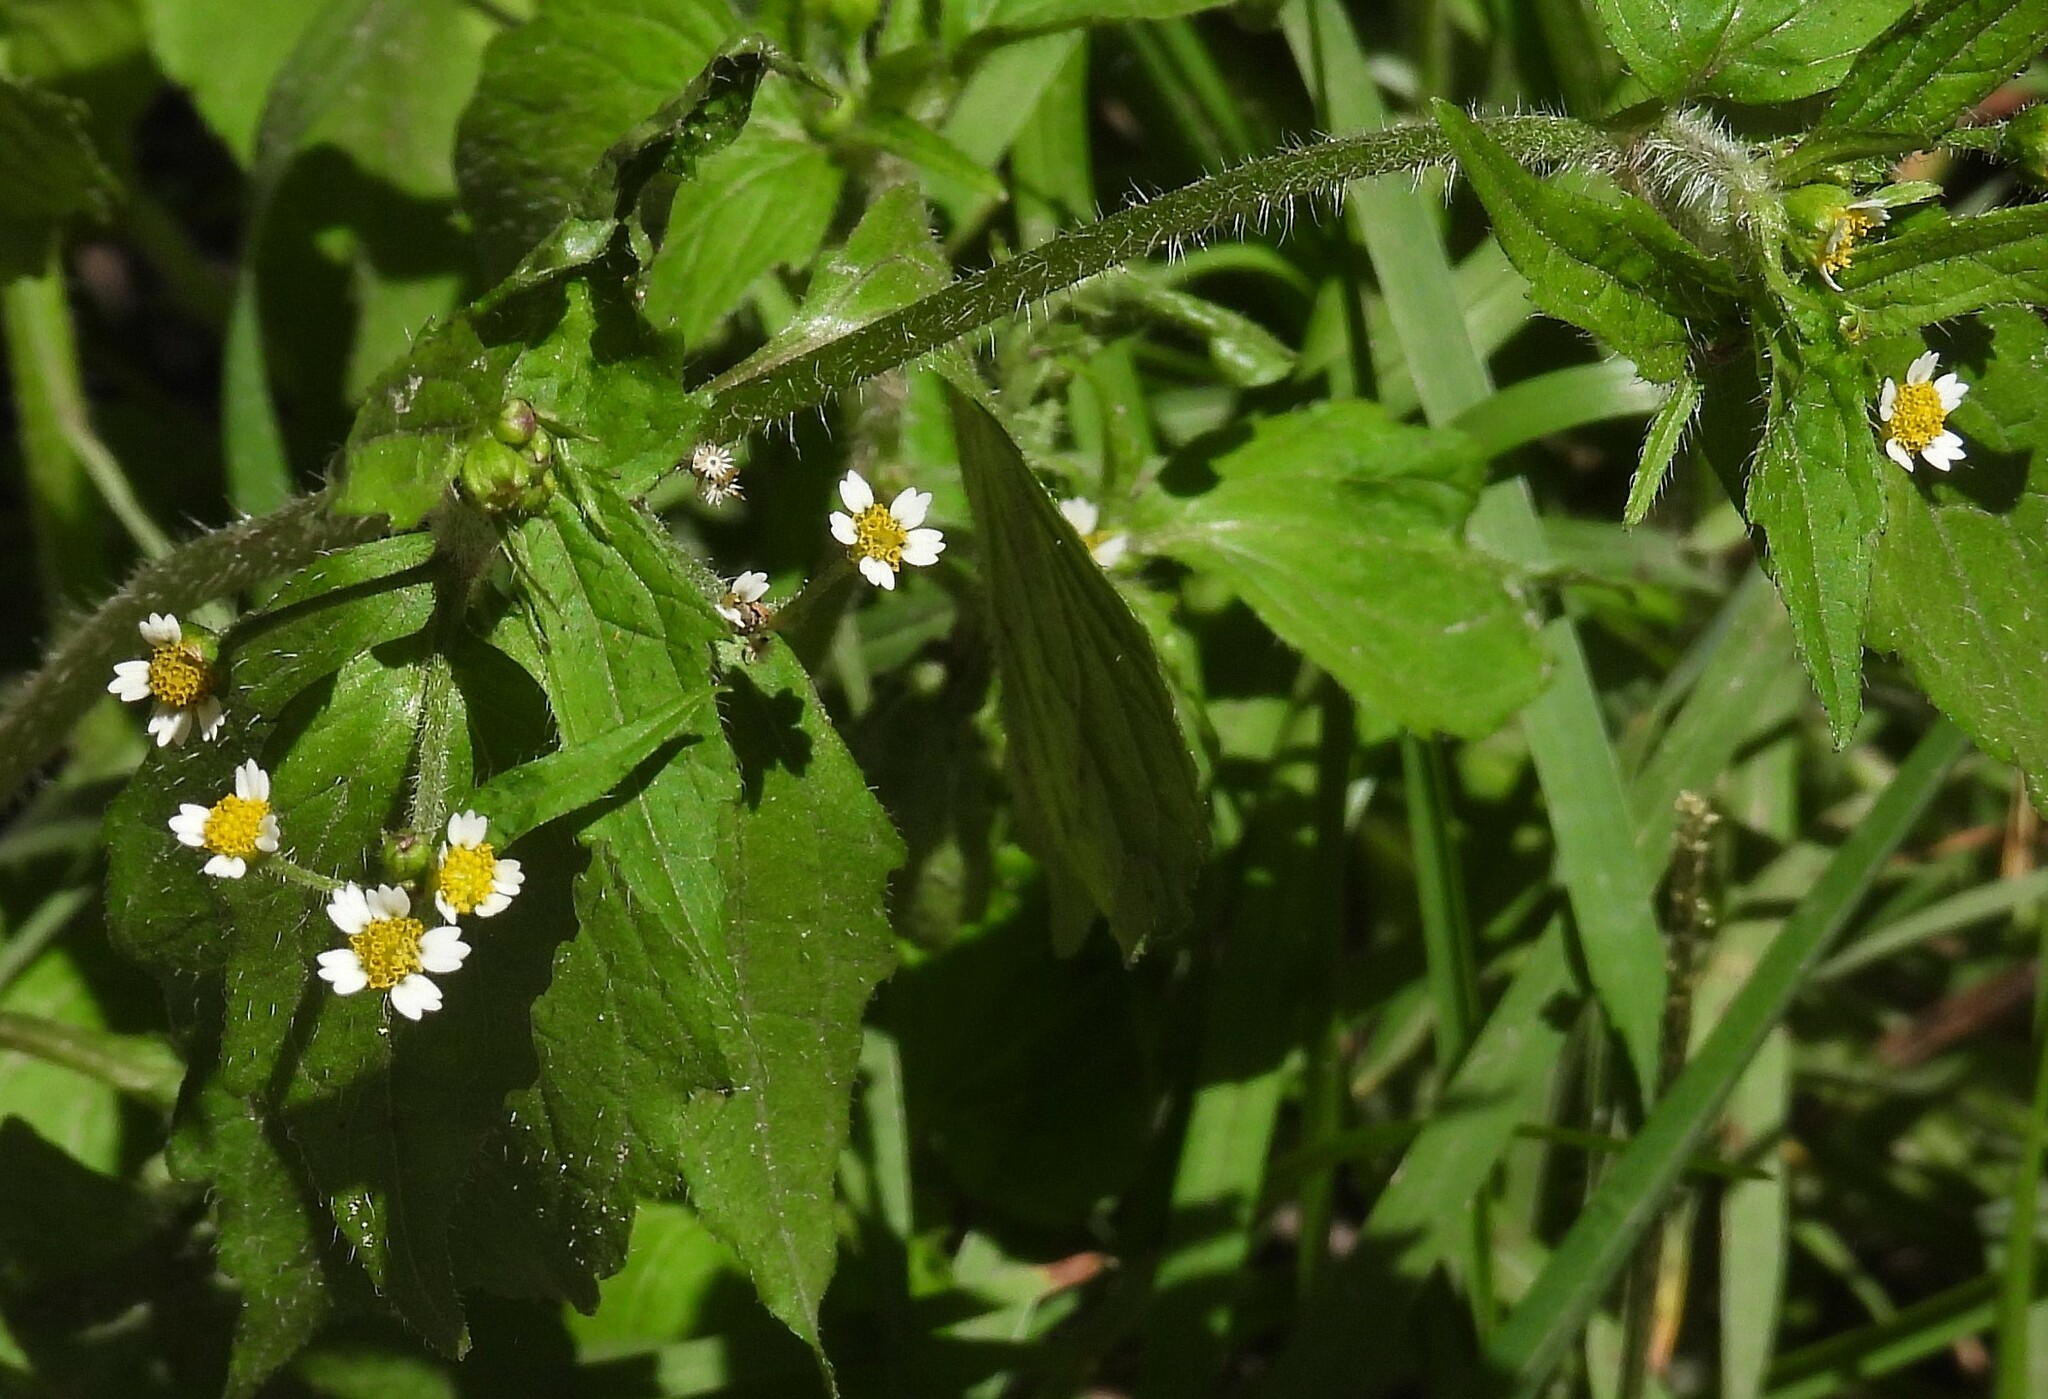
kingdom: Plantae
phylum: Tracheophyta
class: Magnoliopsida
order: Asterales
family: Asteraceae
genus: Galinsoga
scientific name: Galinsoga quadriradiata
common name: Shaggy soldier
